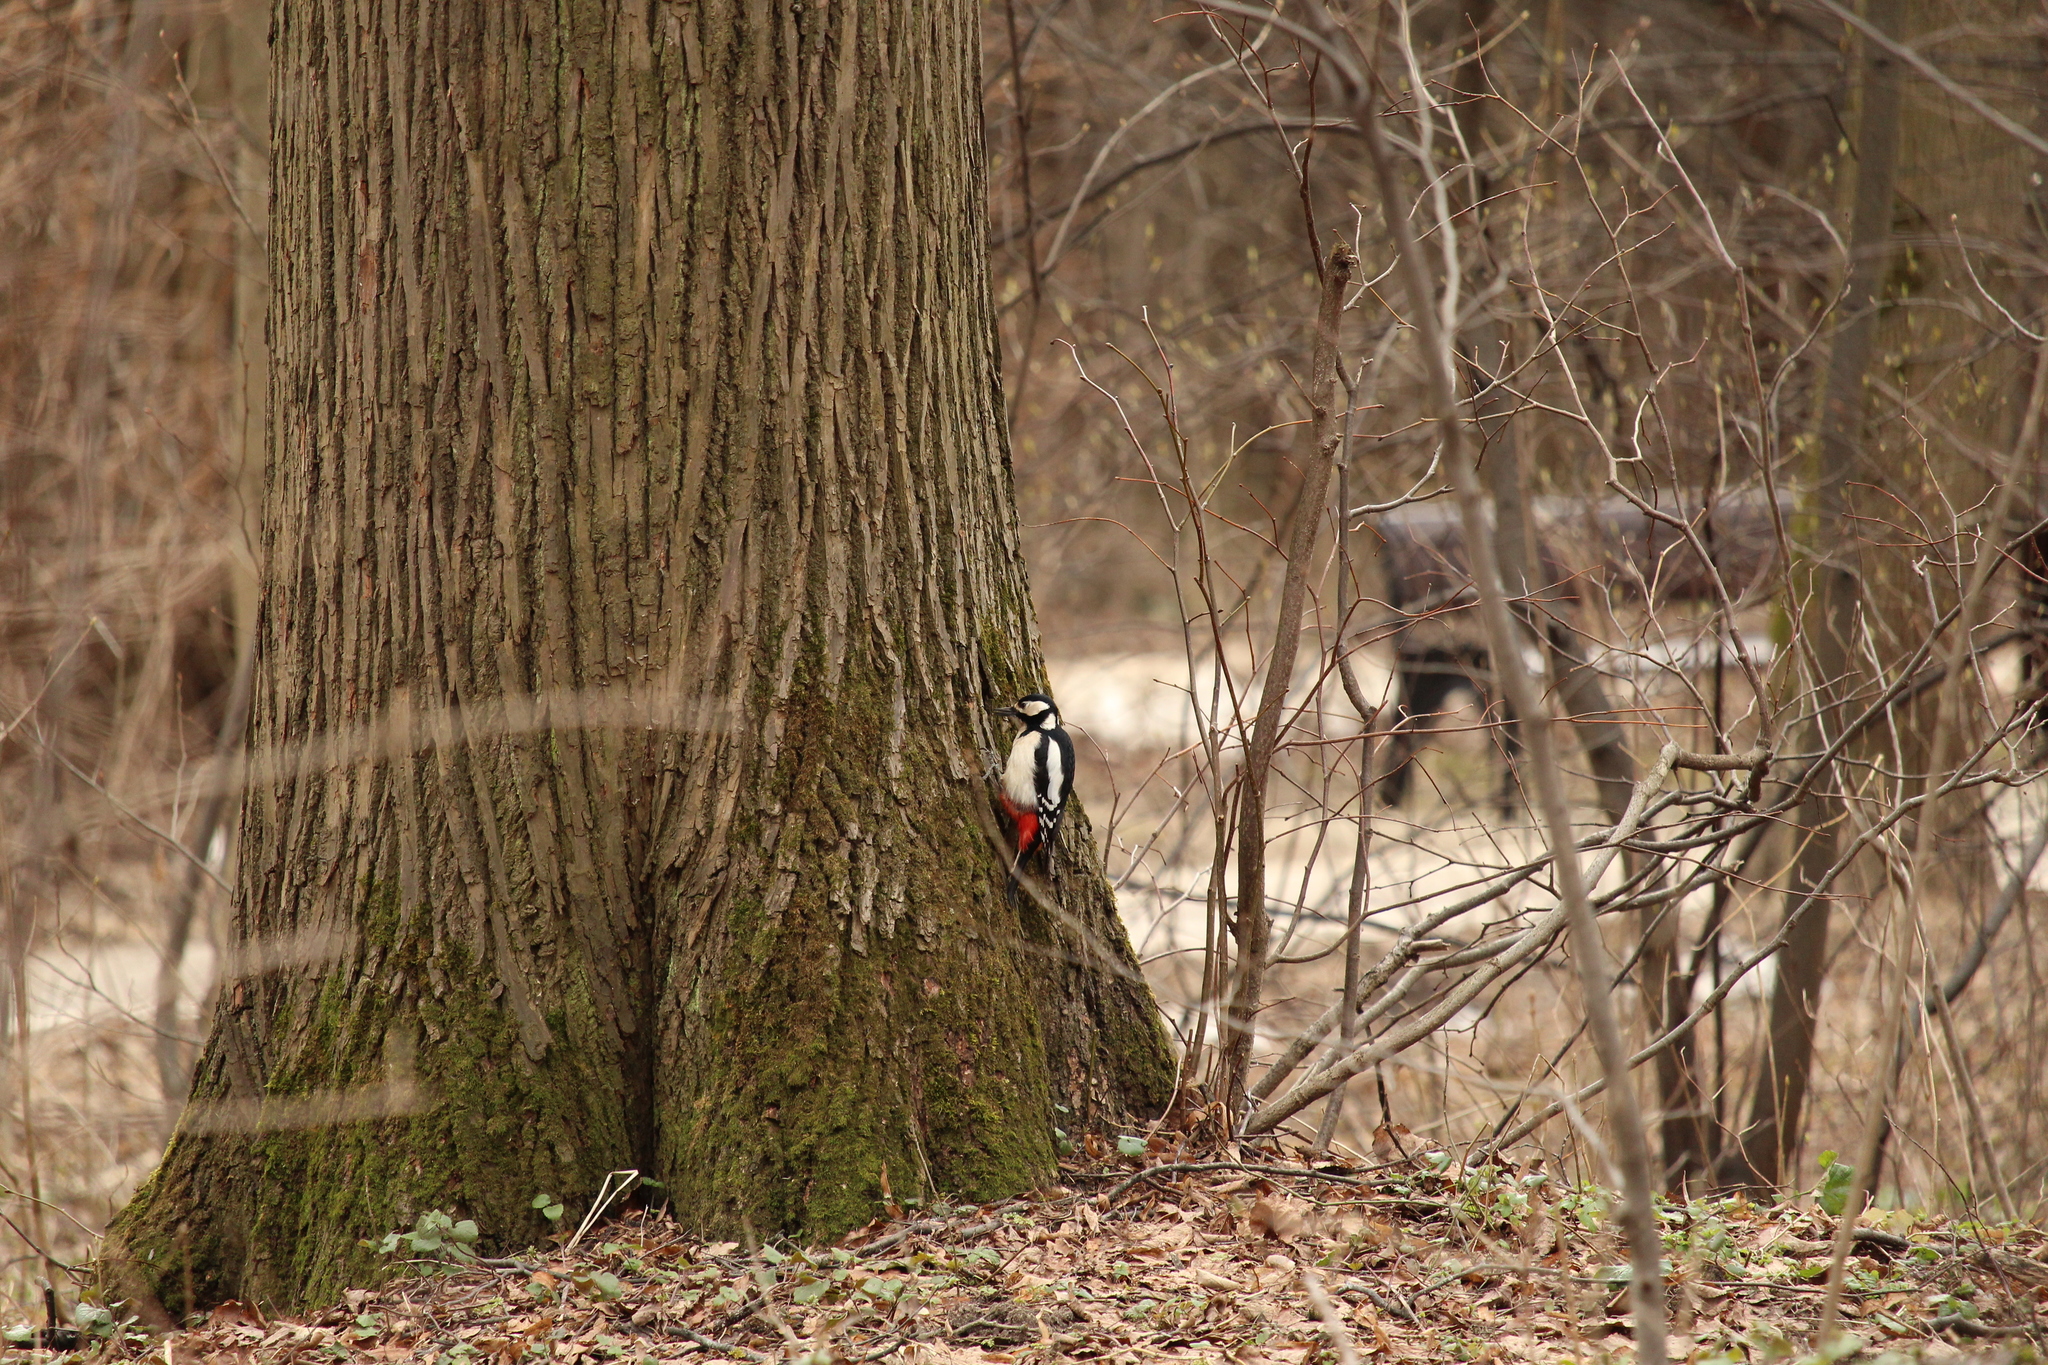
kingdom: Animalia
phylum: Chordata
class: Aves
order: Piciformes
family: Picidae
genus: Dendrocopos
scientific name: Dendrocopos major
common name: Great spotted woodpecker
